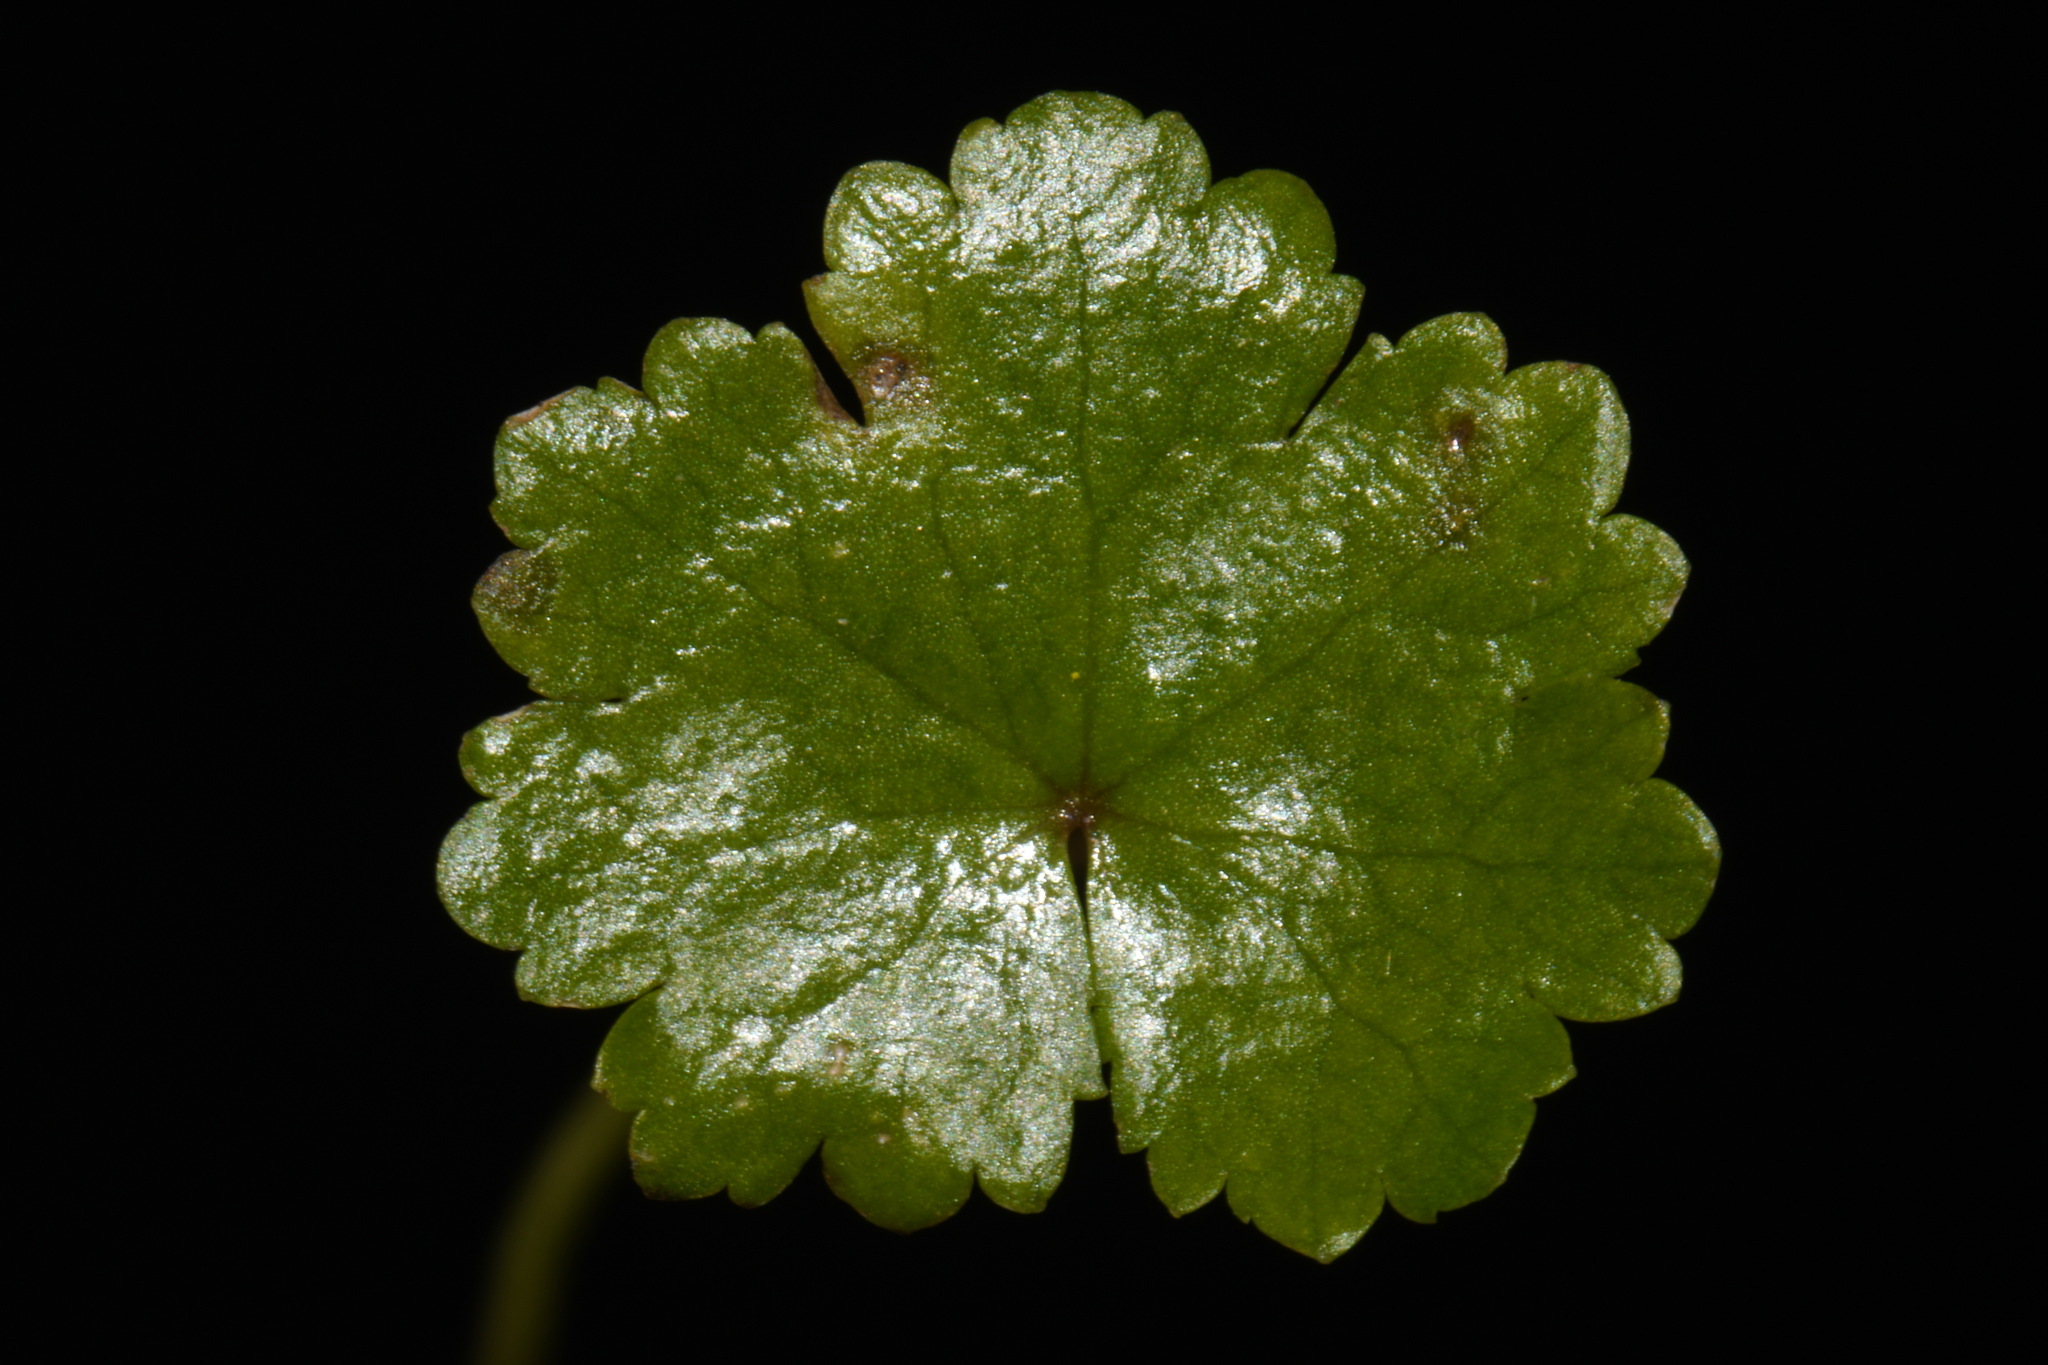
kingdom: Plantae
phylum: Tracheophyta
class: Magnoliopsida
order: Apiales
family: Araliaceae
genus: Hydrocotyle
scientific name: Hydrocotyle sibthorpioides
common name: Lawn marshpennywort
